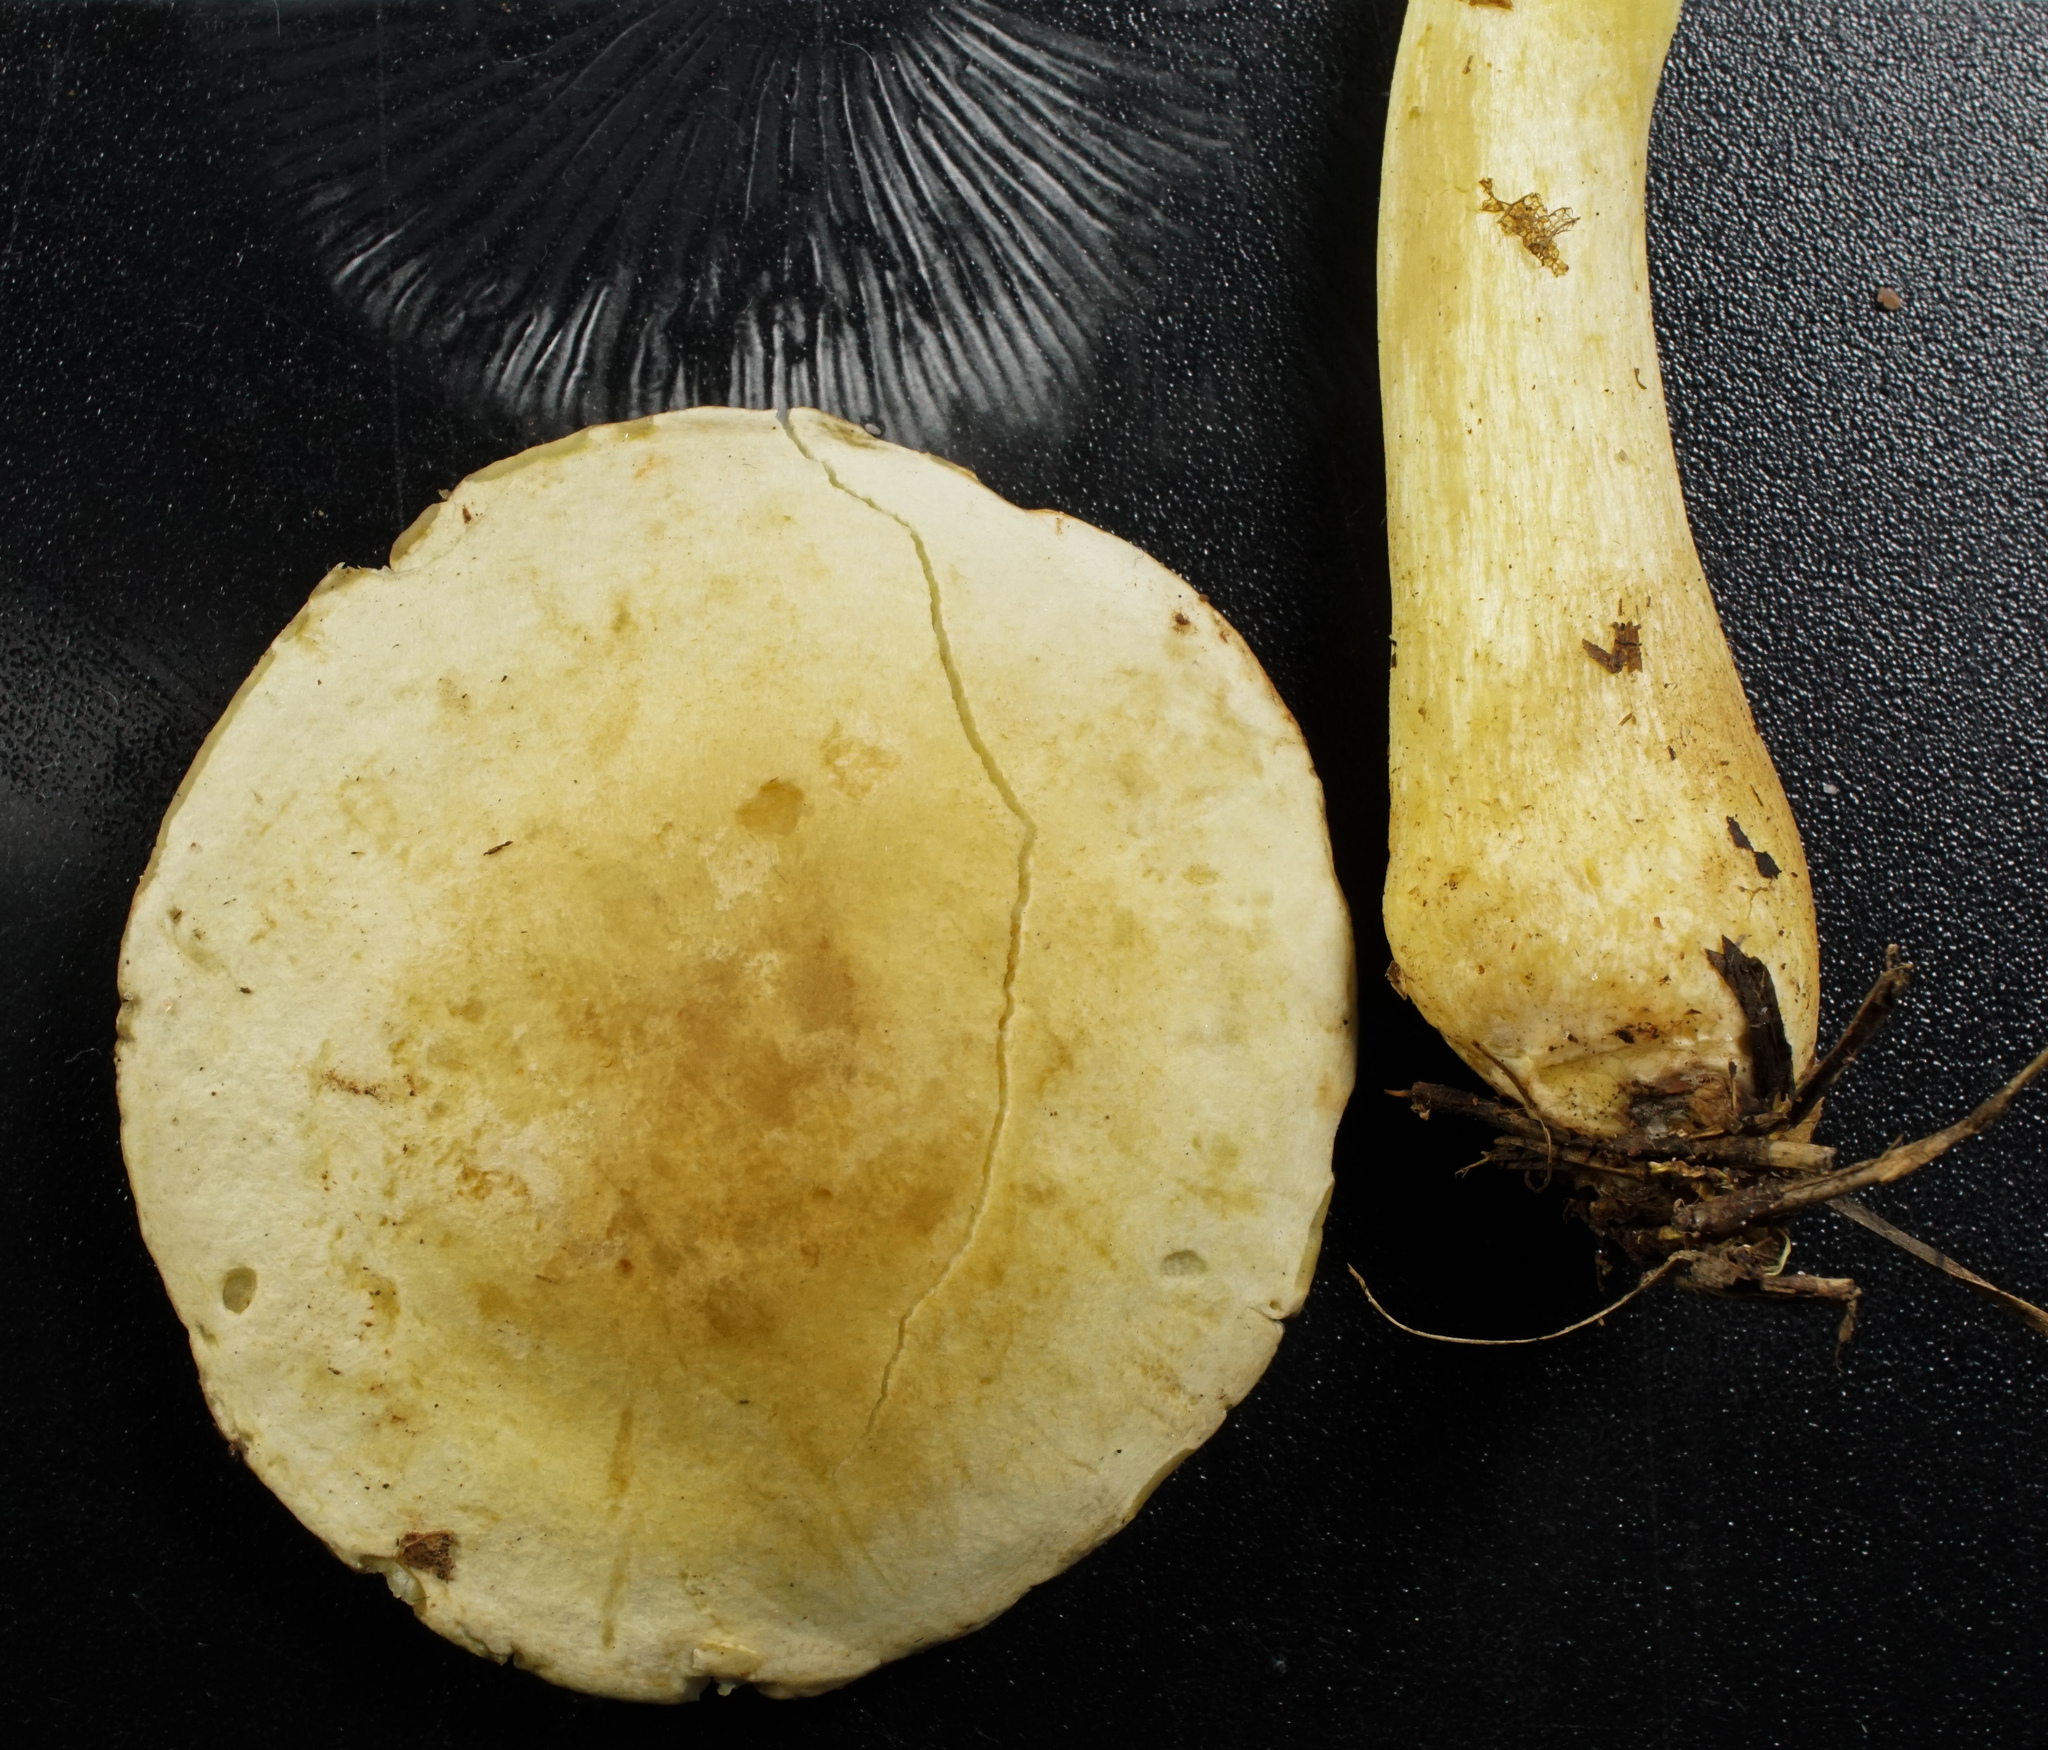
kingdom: Fungi
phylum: Basidiomycota
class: Agaricomycetes
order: Agaricales
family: Tricholomataceae
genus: Tricholoma
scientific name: Tricholoma sulphureum
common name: Stinky knight
